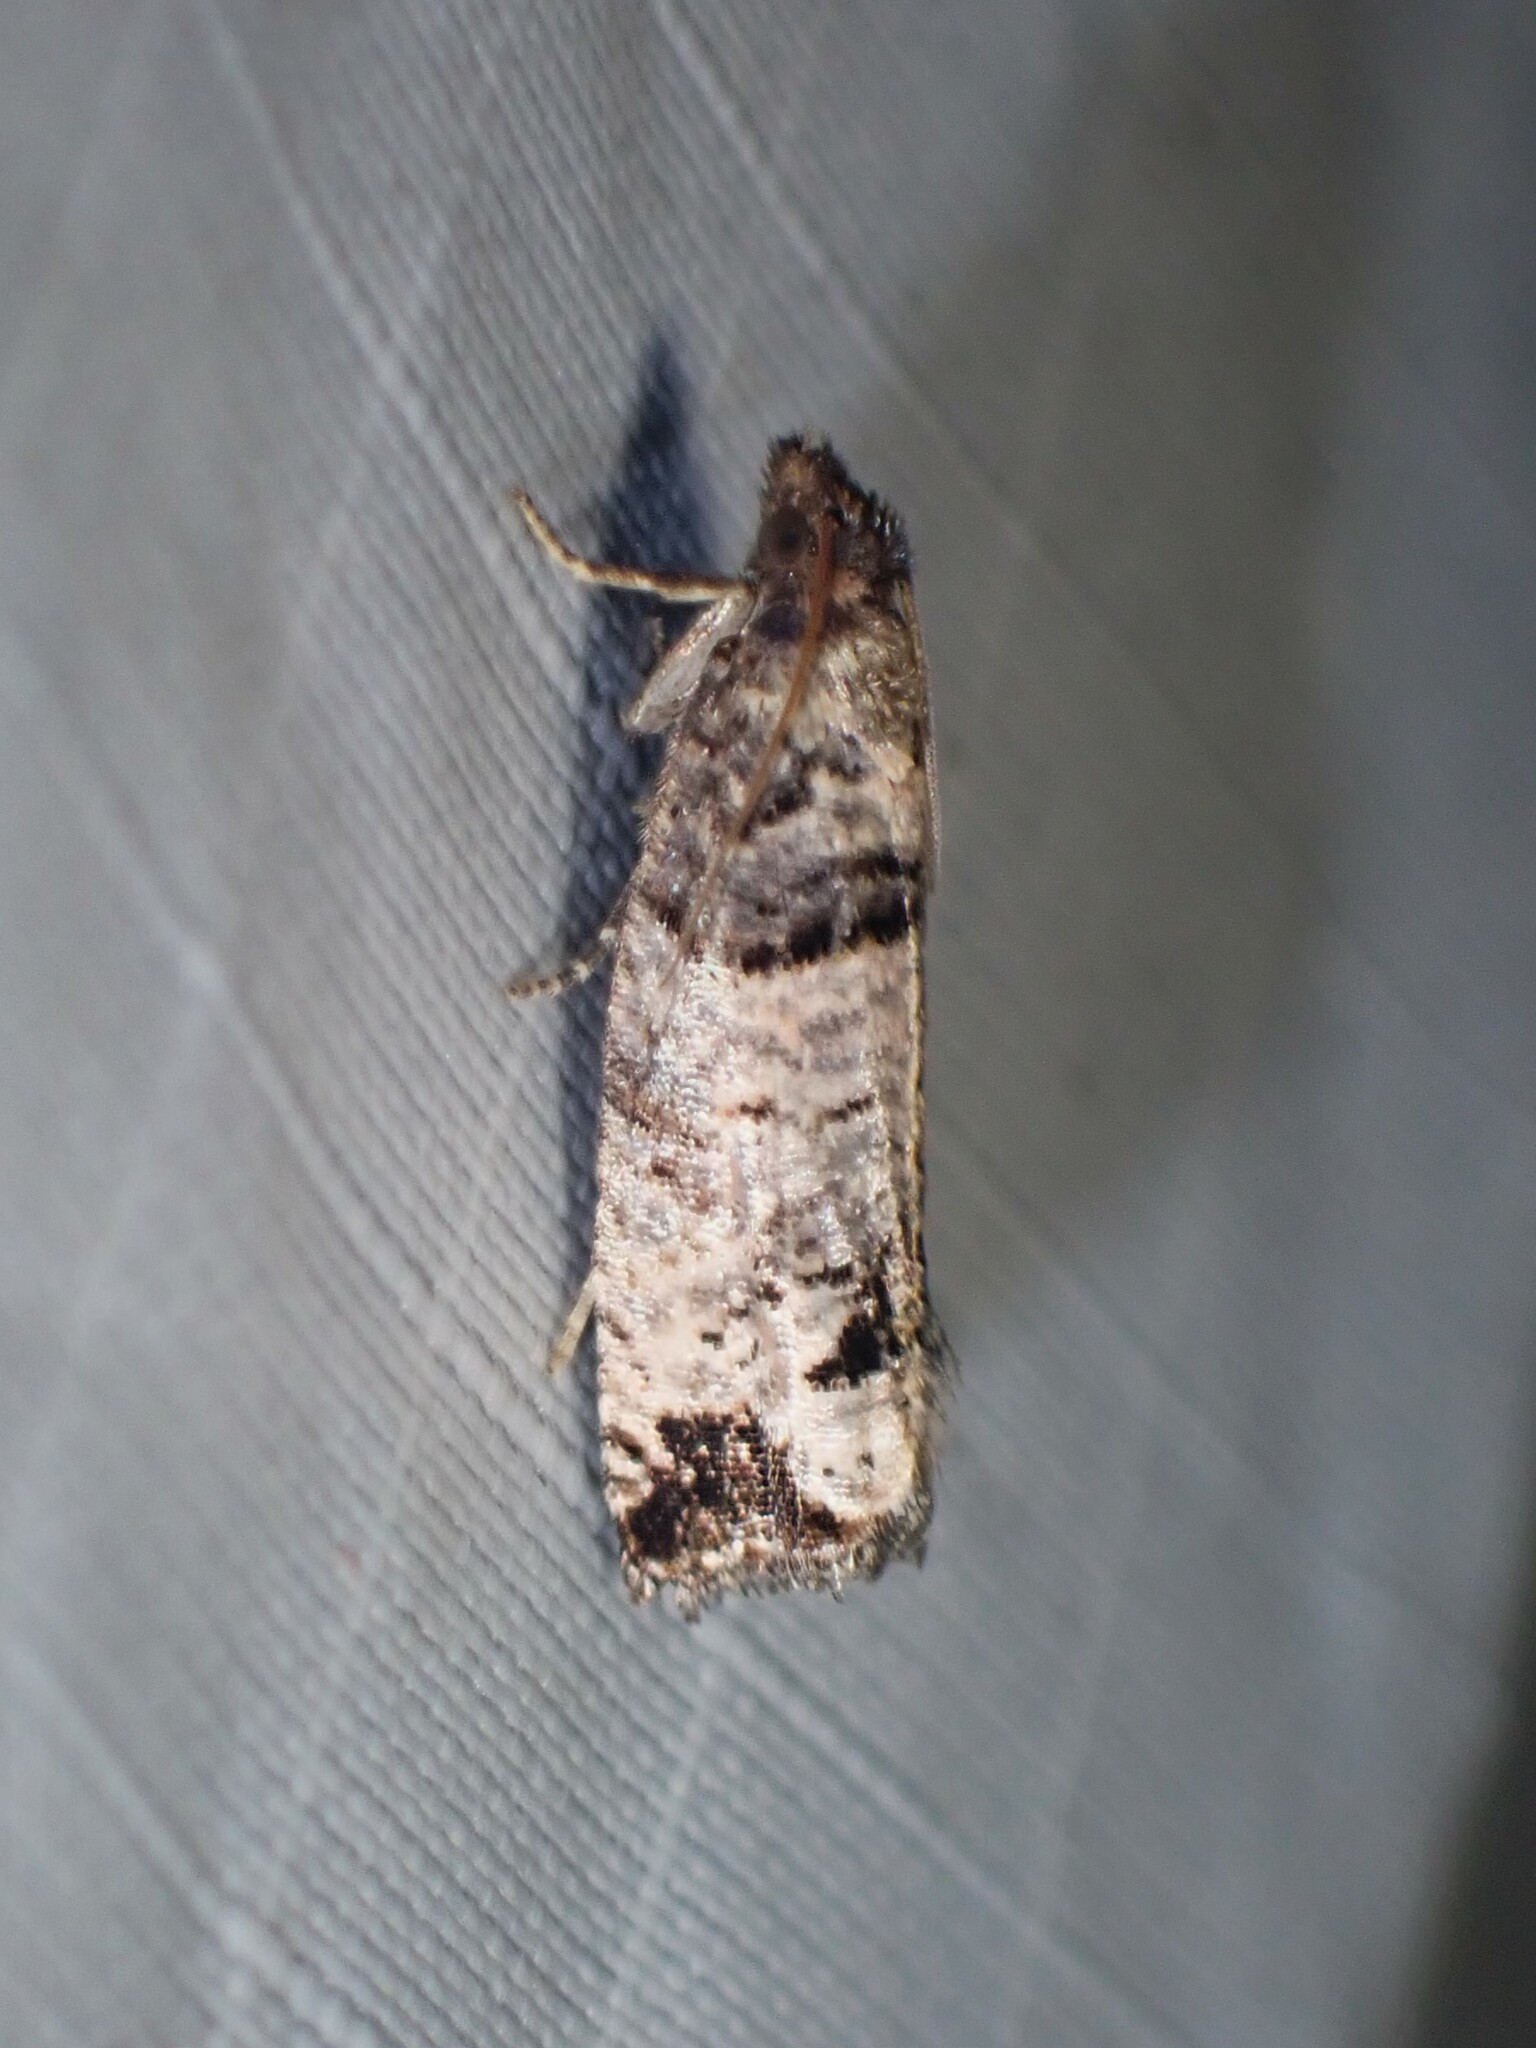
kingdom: Animalia
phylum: Arthropoda
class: Insecta
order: Lepidoptera
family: Tortricidae
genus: Notocelia
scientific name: Notocelia culminana
